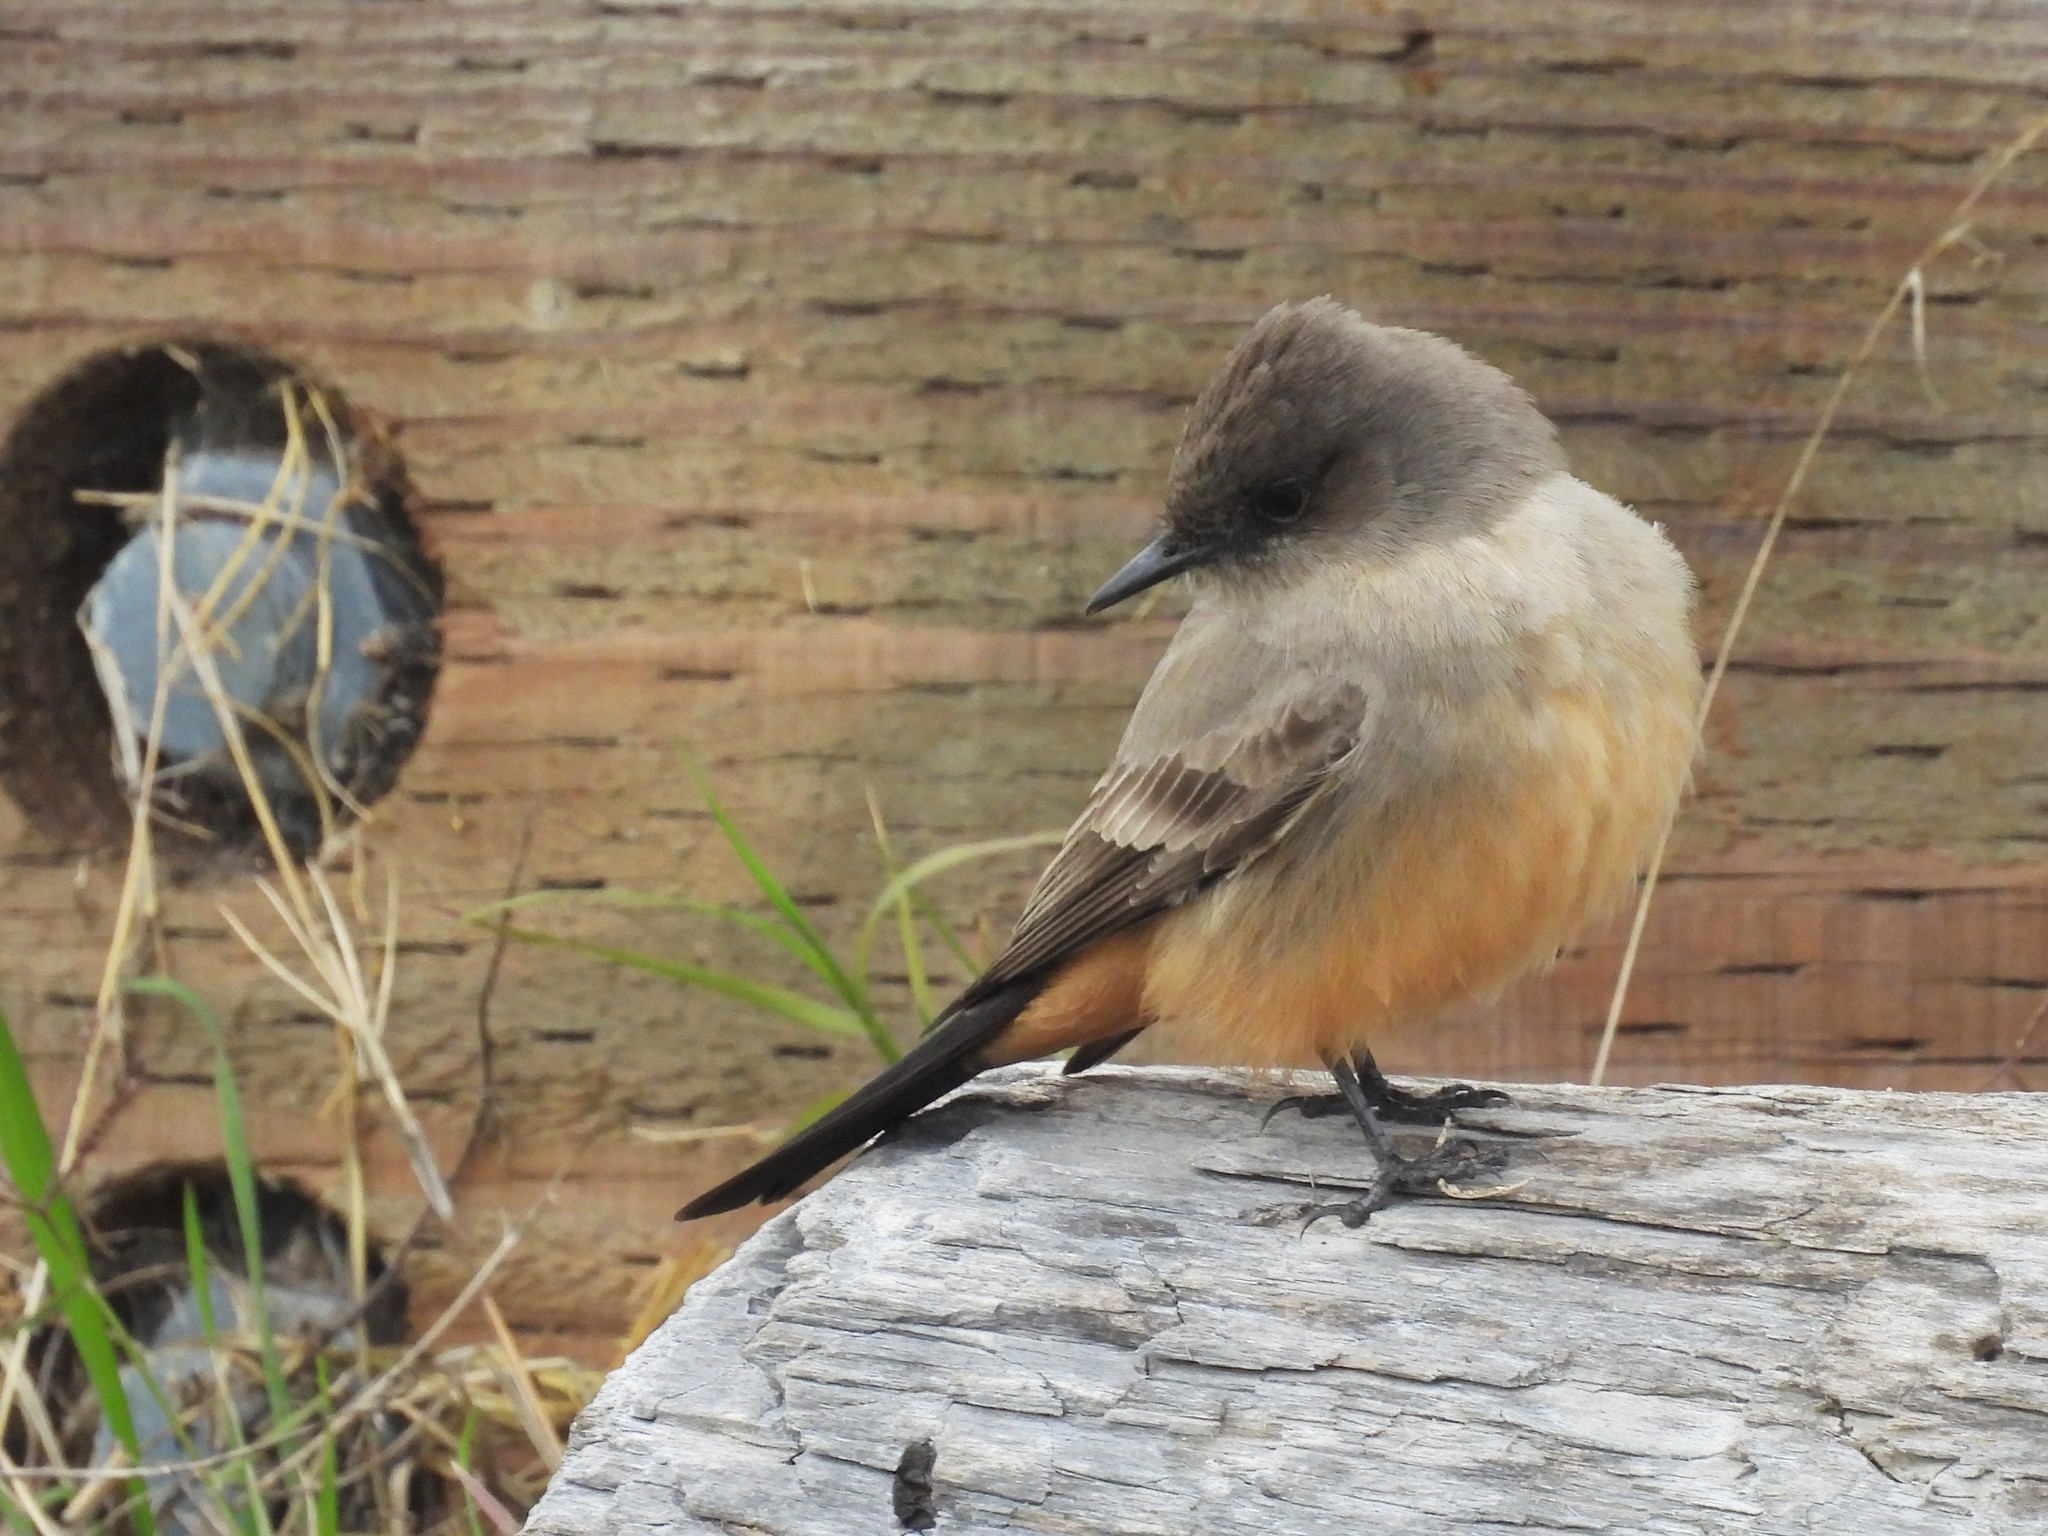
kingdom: Animalia
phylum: Chordata
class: Aves
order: Passeriformes
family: Tyrannidae
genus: Sayornis
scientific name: Sayornis saya
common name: Say's phoebe
